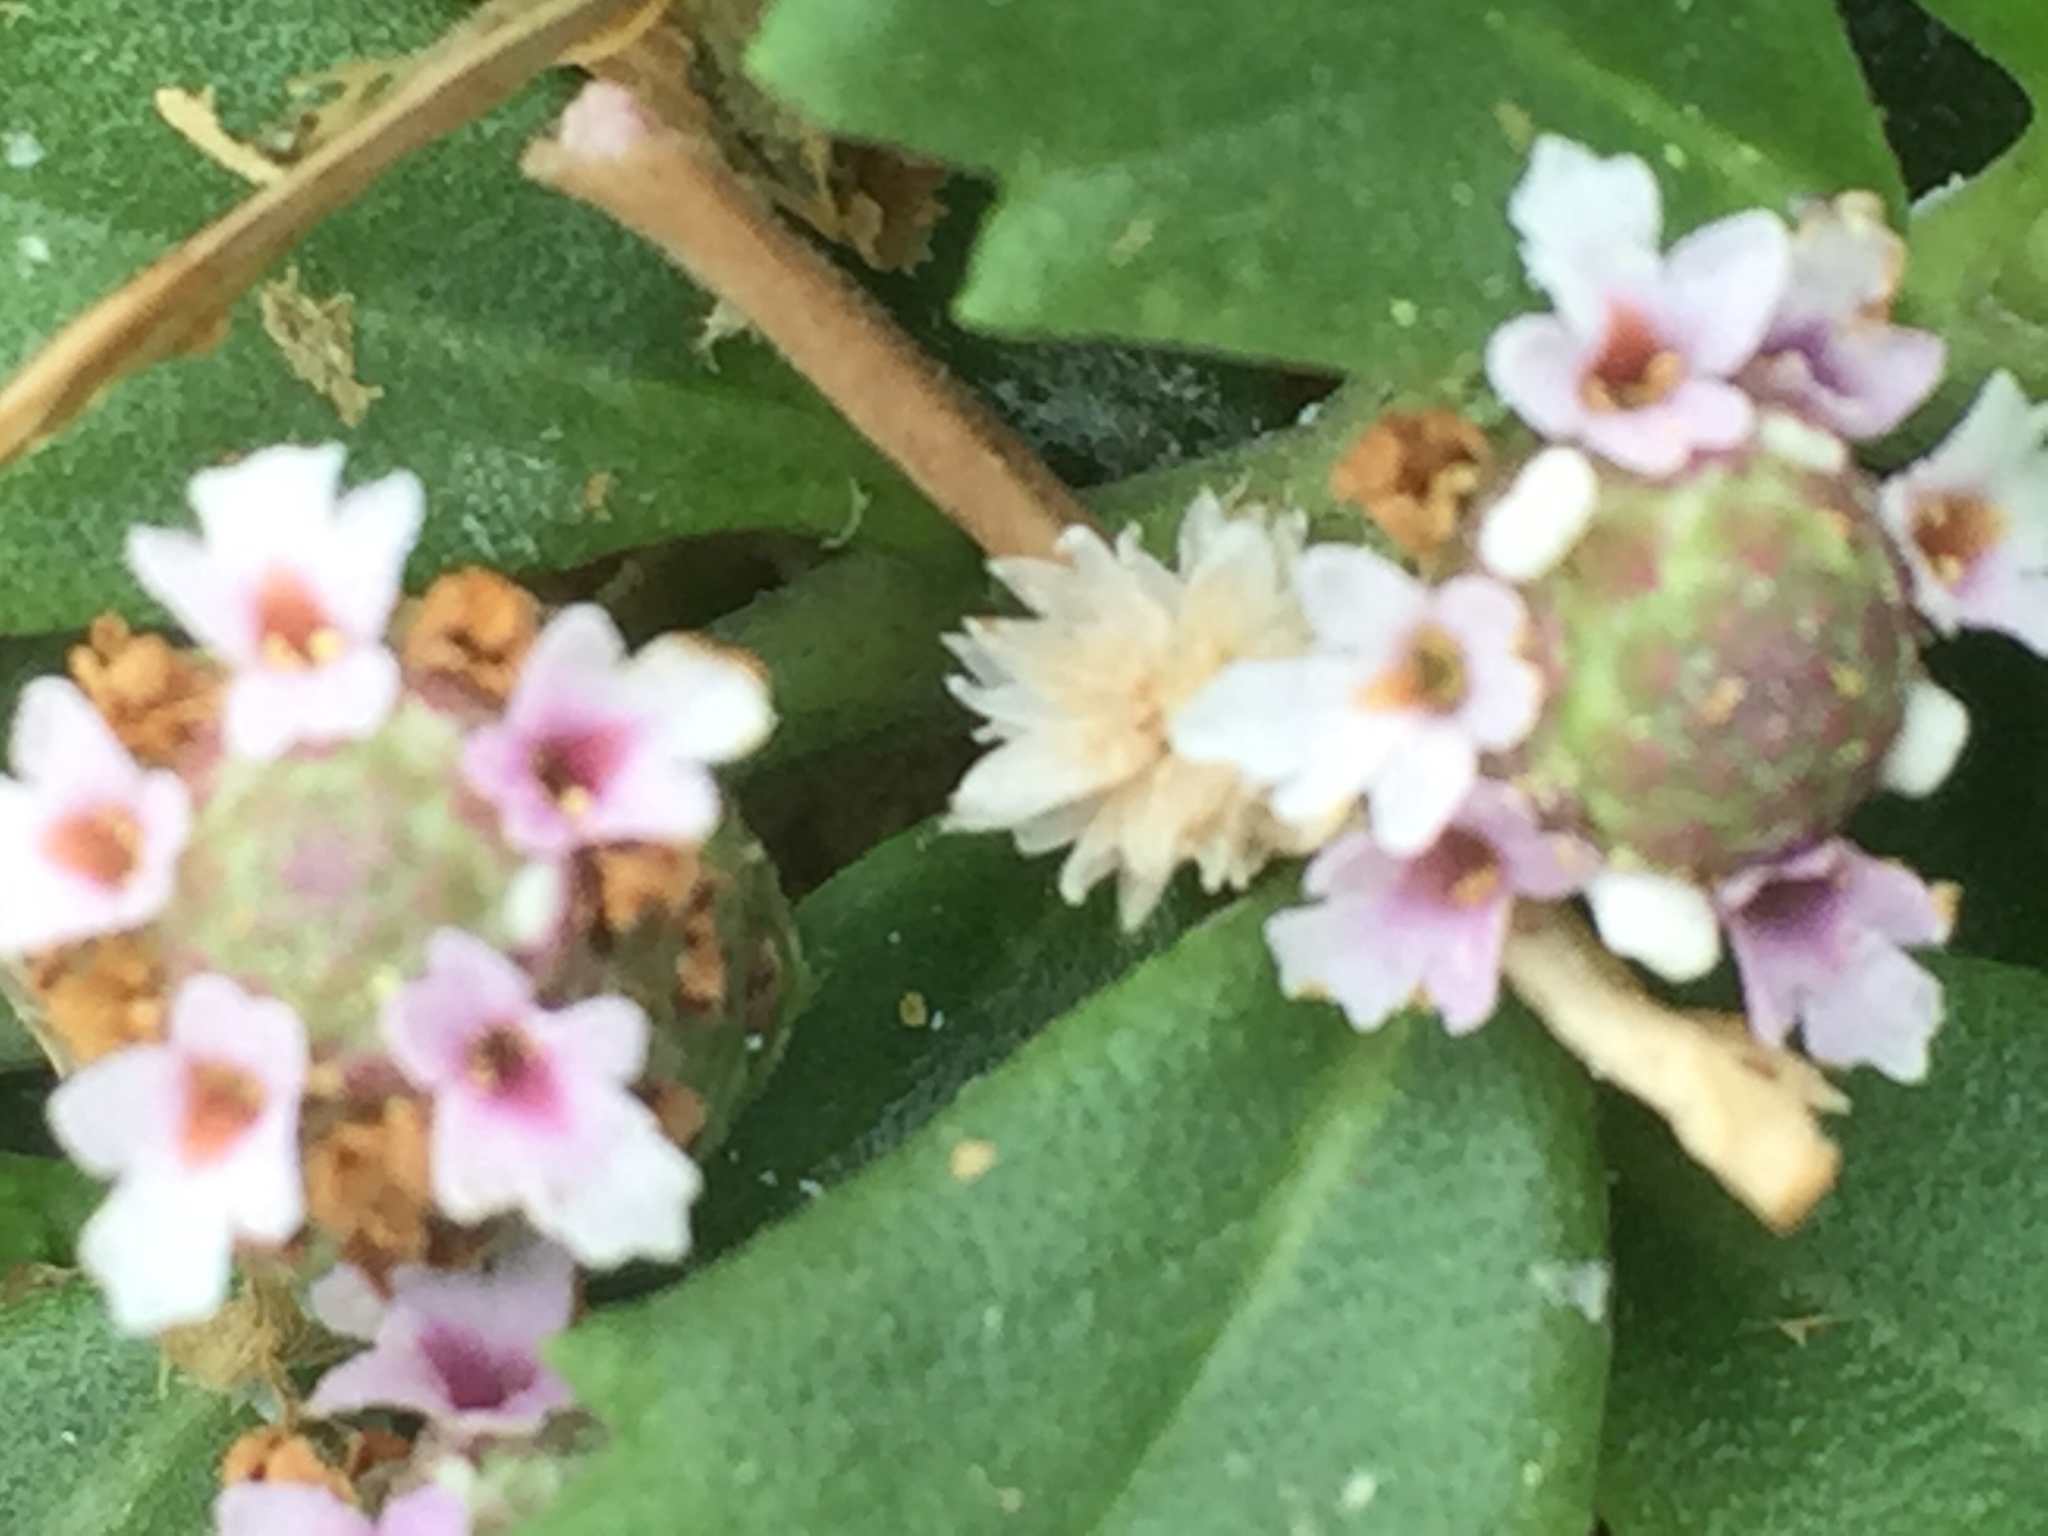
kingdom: Plantae
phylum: Tracheophyta
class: Magnoliopsida
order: Lamiales
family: Verbenaceae
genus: Phyla
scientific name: Phyla nodiflora
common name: Frogfruit
